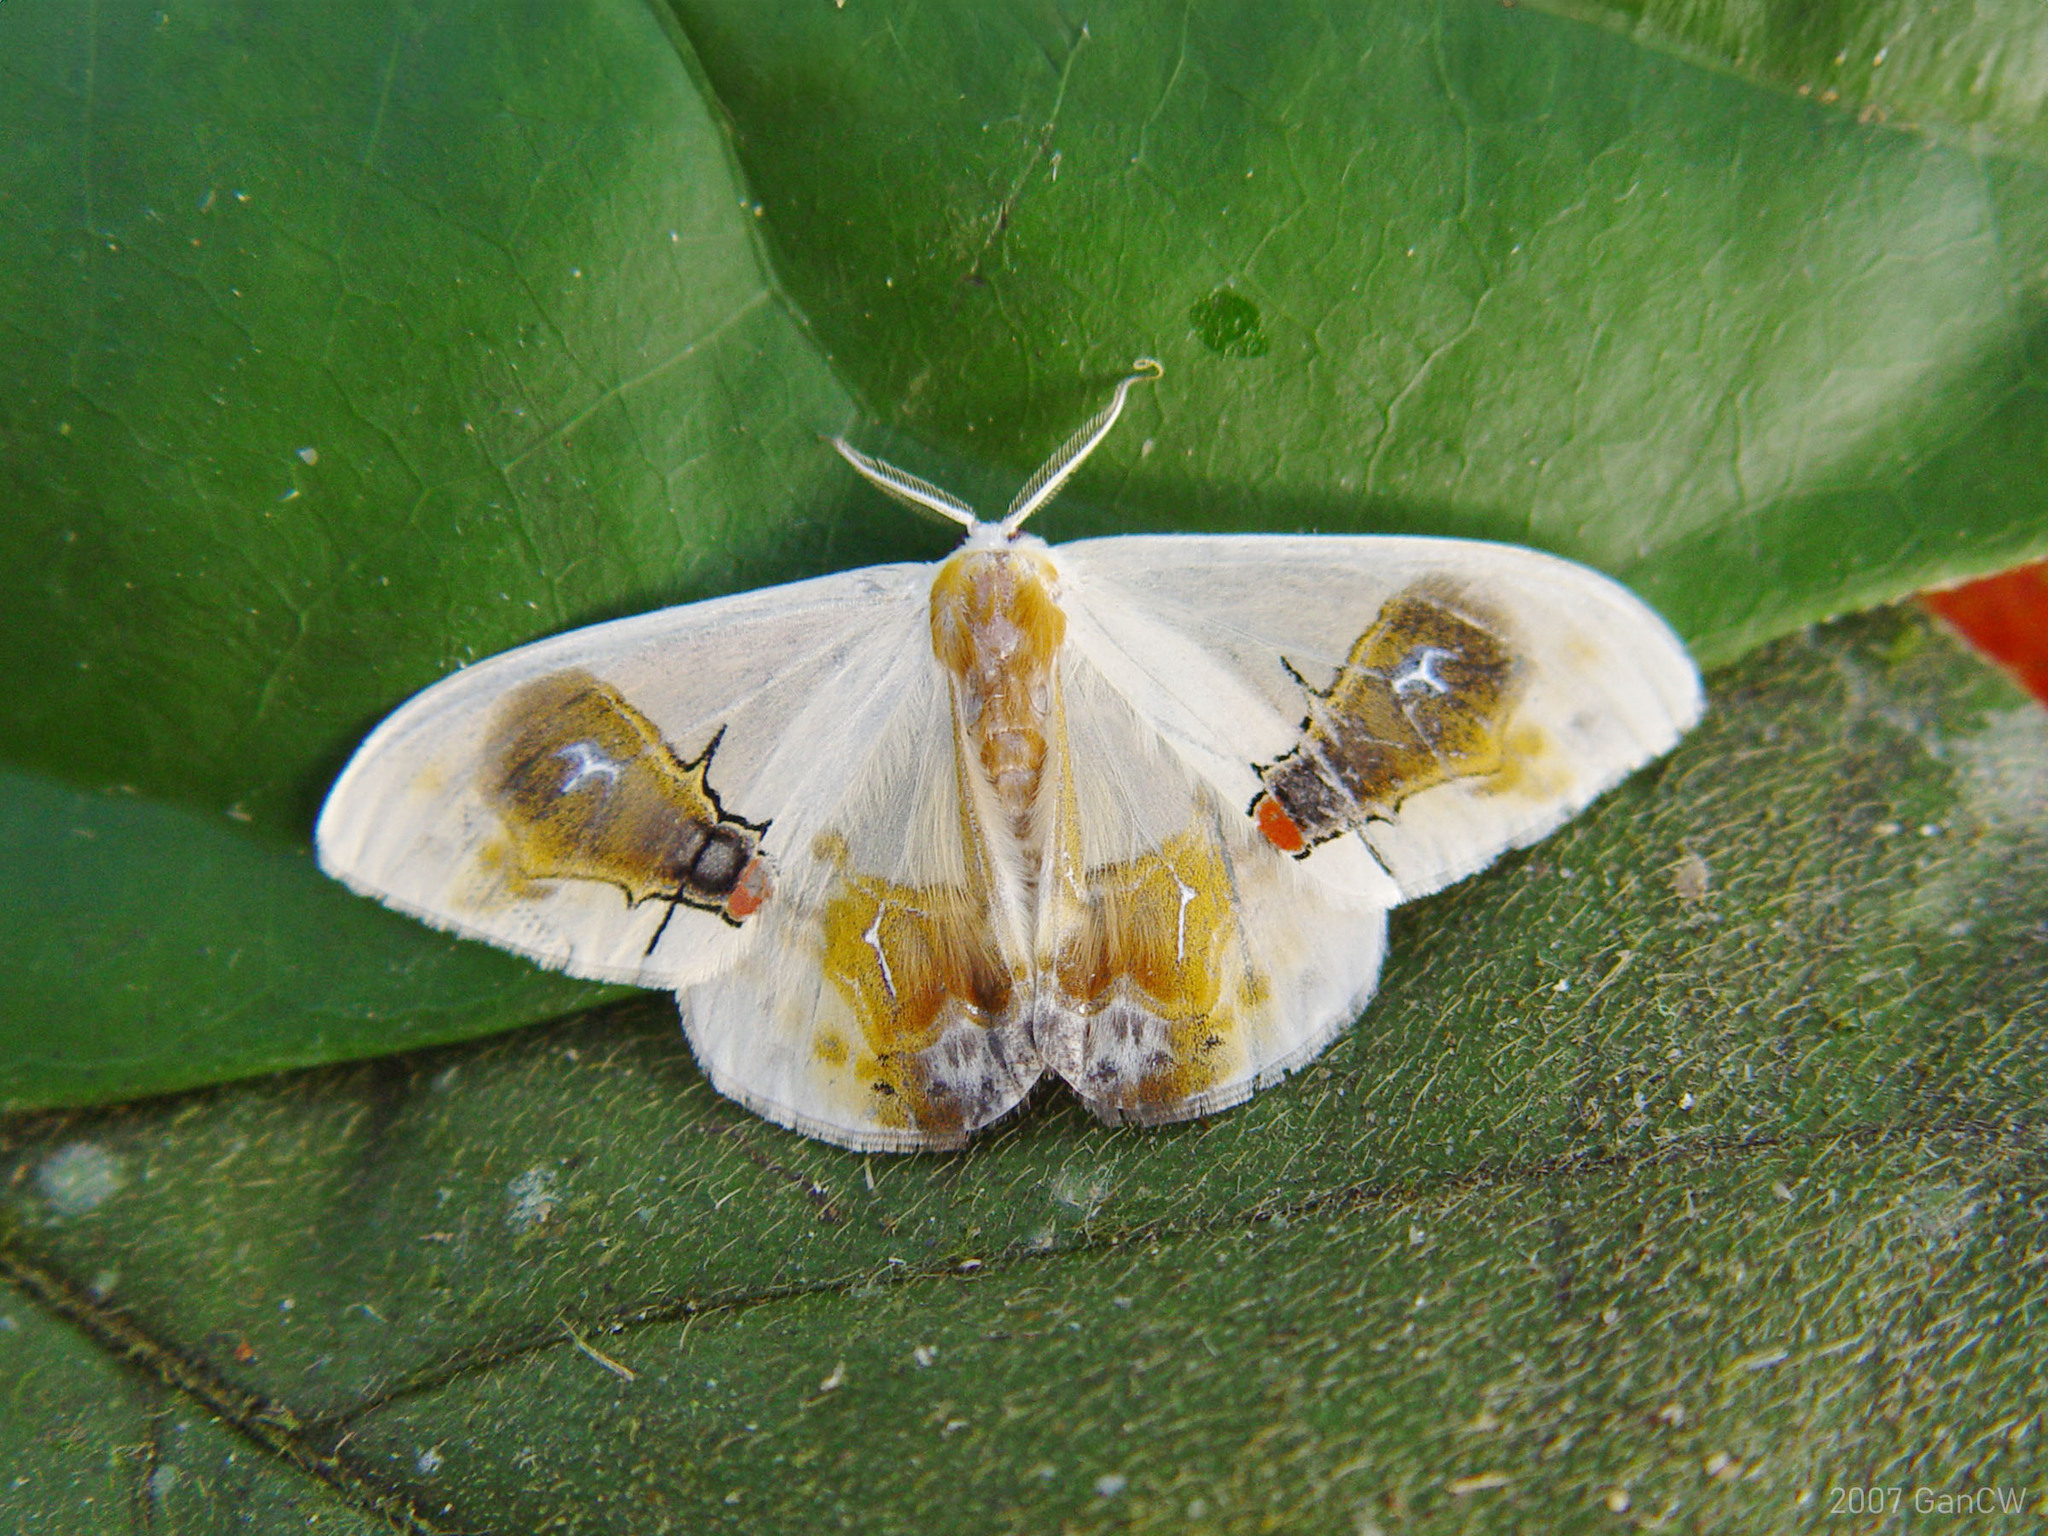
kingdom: Animalia
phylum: Arthropoda
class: Insecta
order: Lepidoptera
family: Drepanidae
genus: Macrocilix
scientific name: Macrocilix maia
